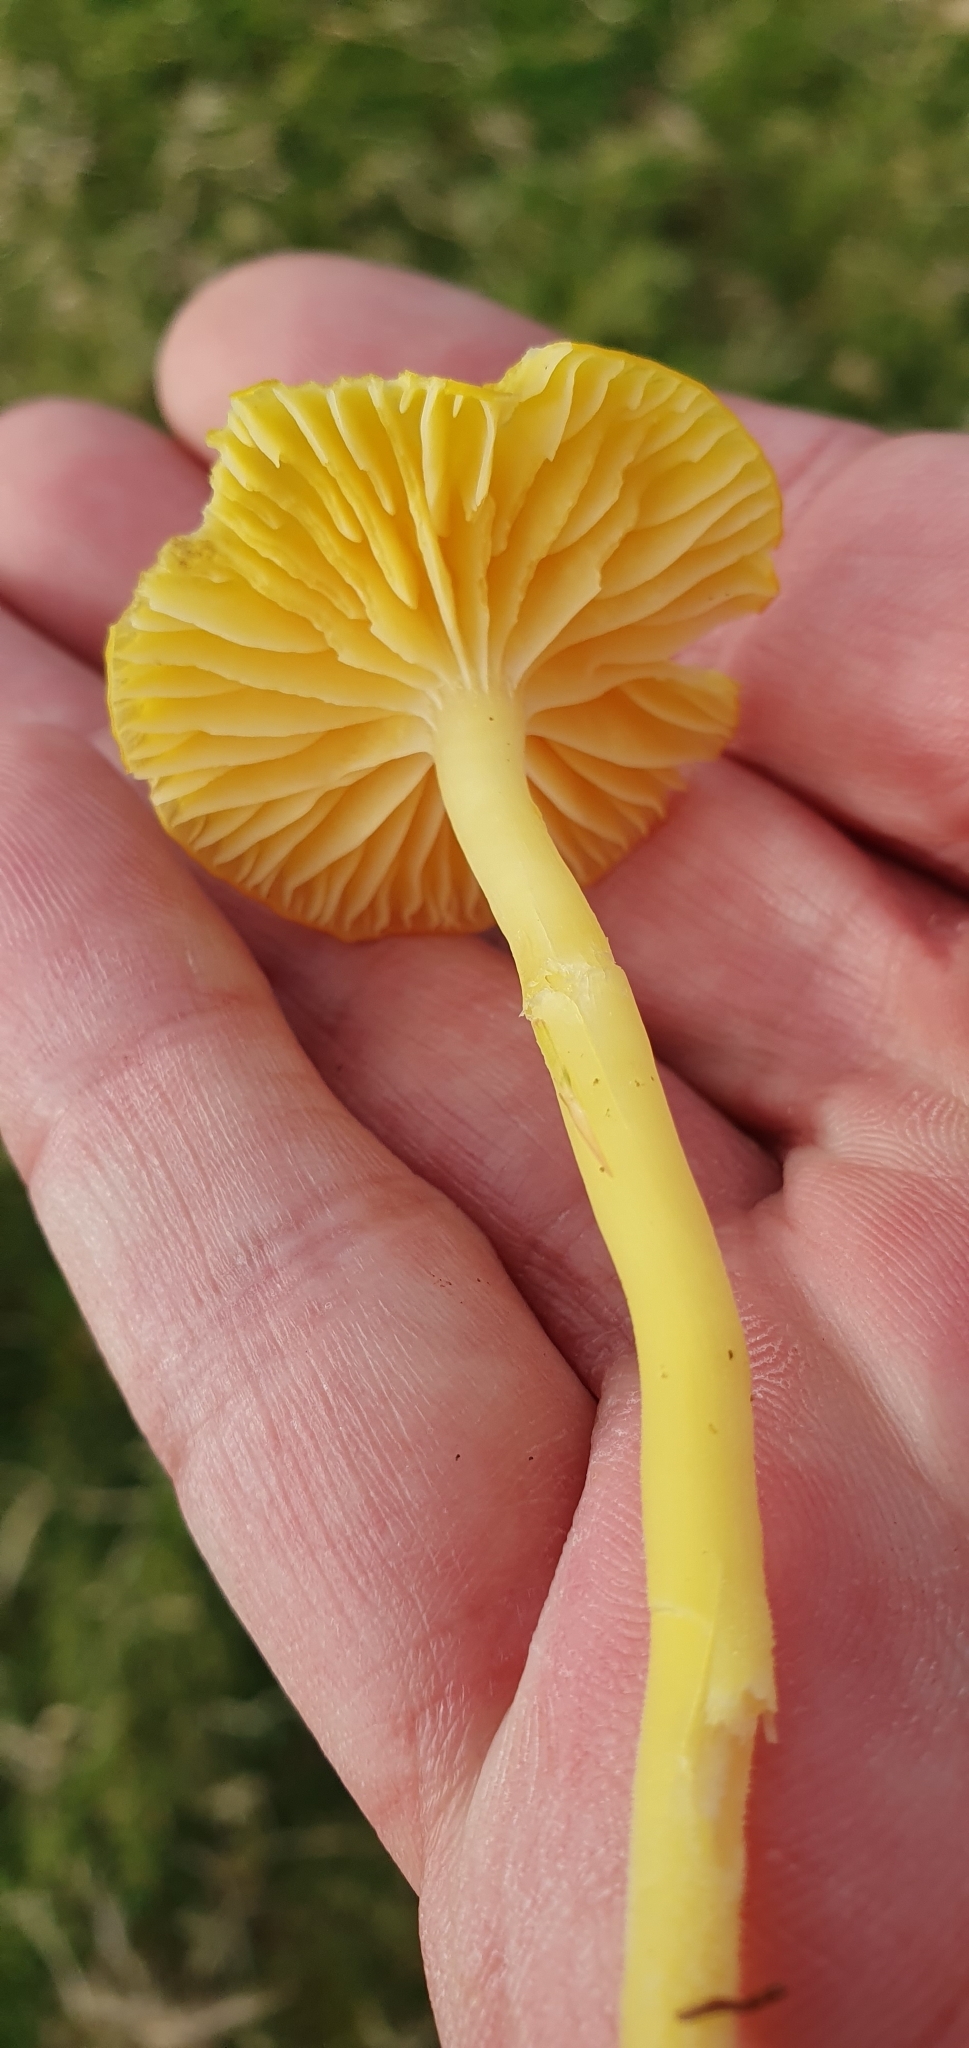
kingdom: Fungi
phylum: Basidiomycota
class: Agaricomycetes
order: Agaricales
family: Hygrophoraceae
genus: Hygrocybe
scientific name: Hygrocybe ceracea
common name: Butter waxcap
